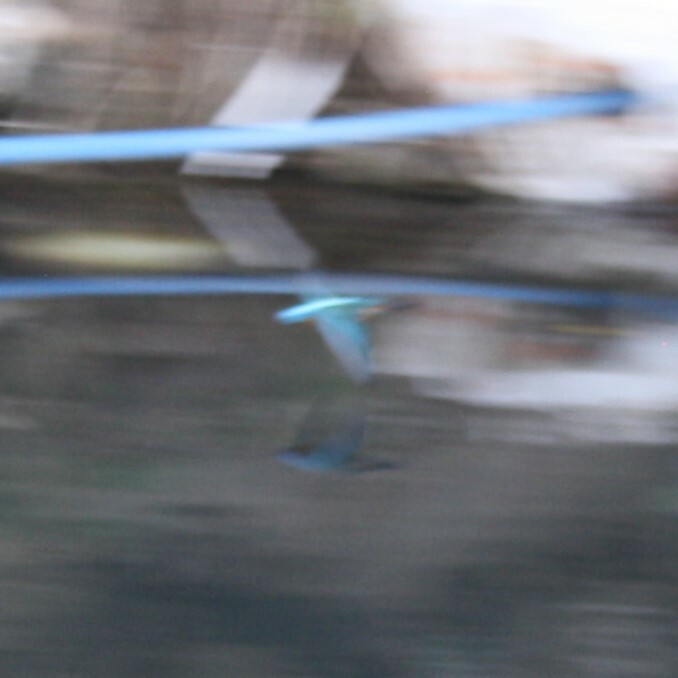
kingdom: Animalia
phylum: Chordata
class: Aves
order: Coraciiformes
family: Alcedinidae
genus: Alcedo
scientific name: Alcedo atthis
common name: Common kingfisher
